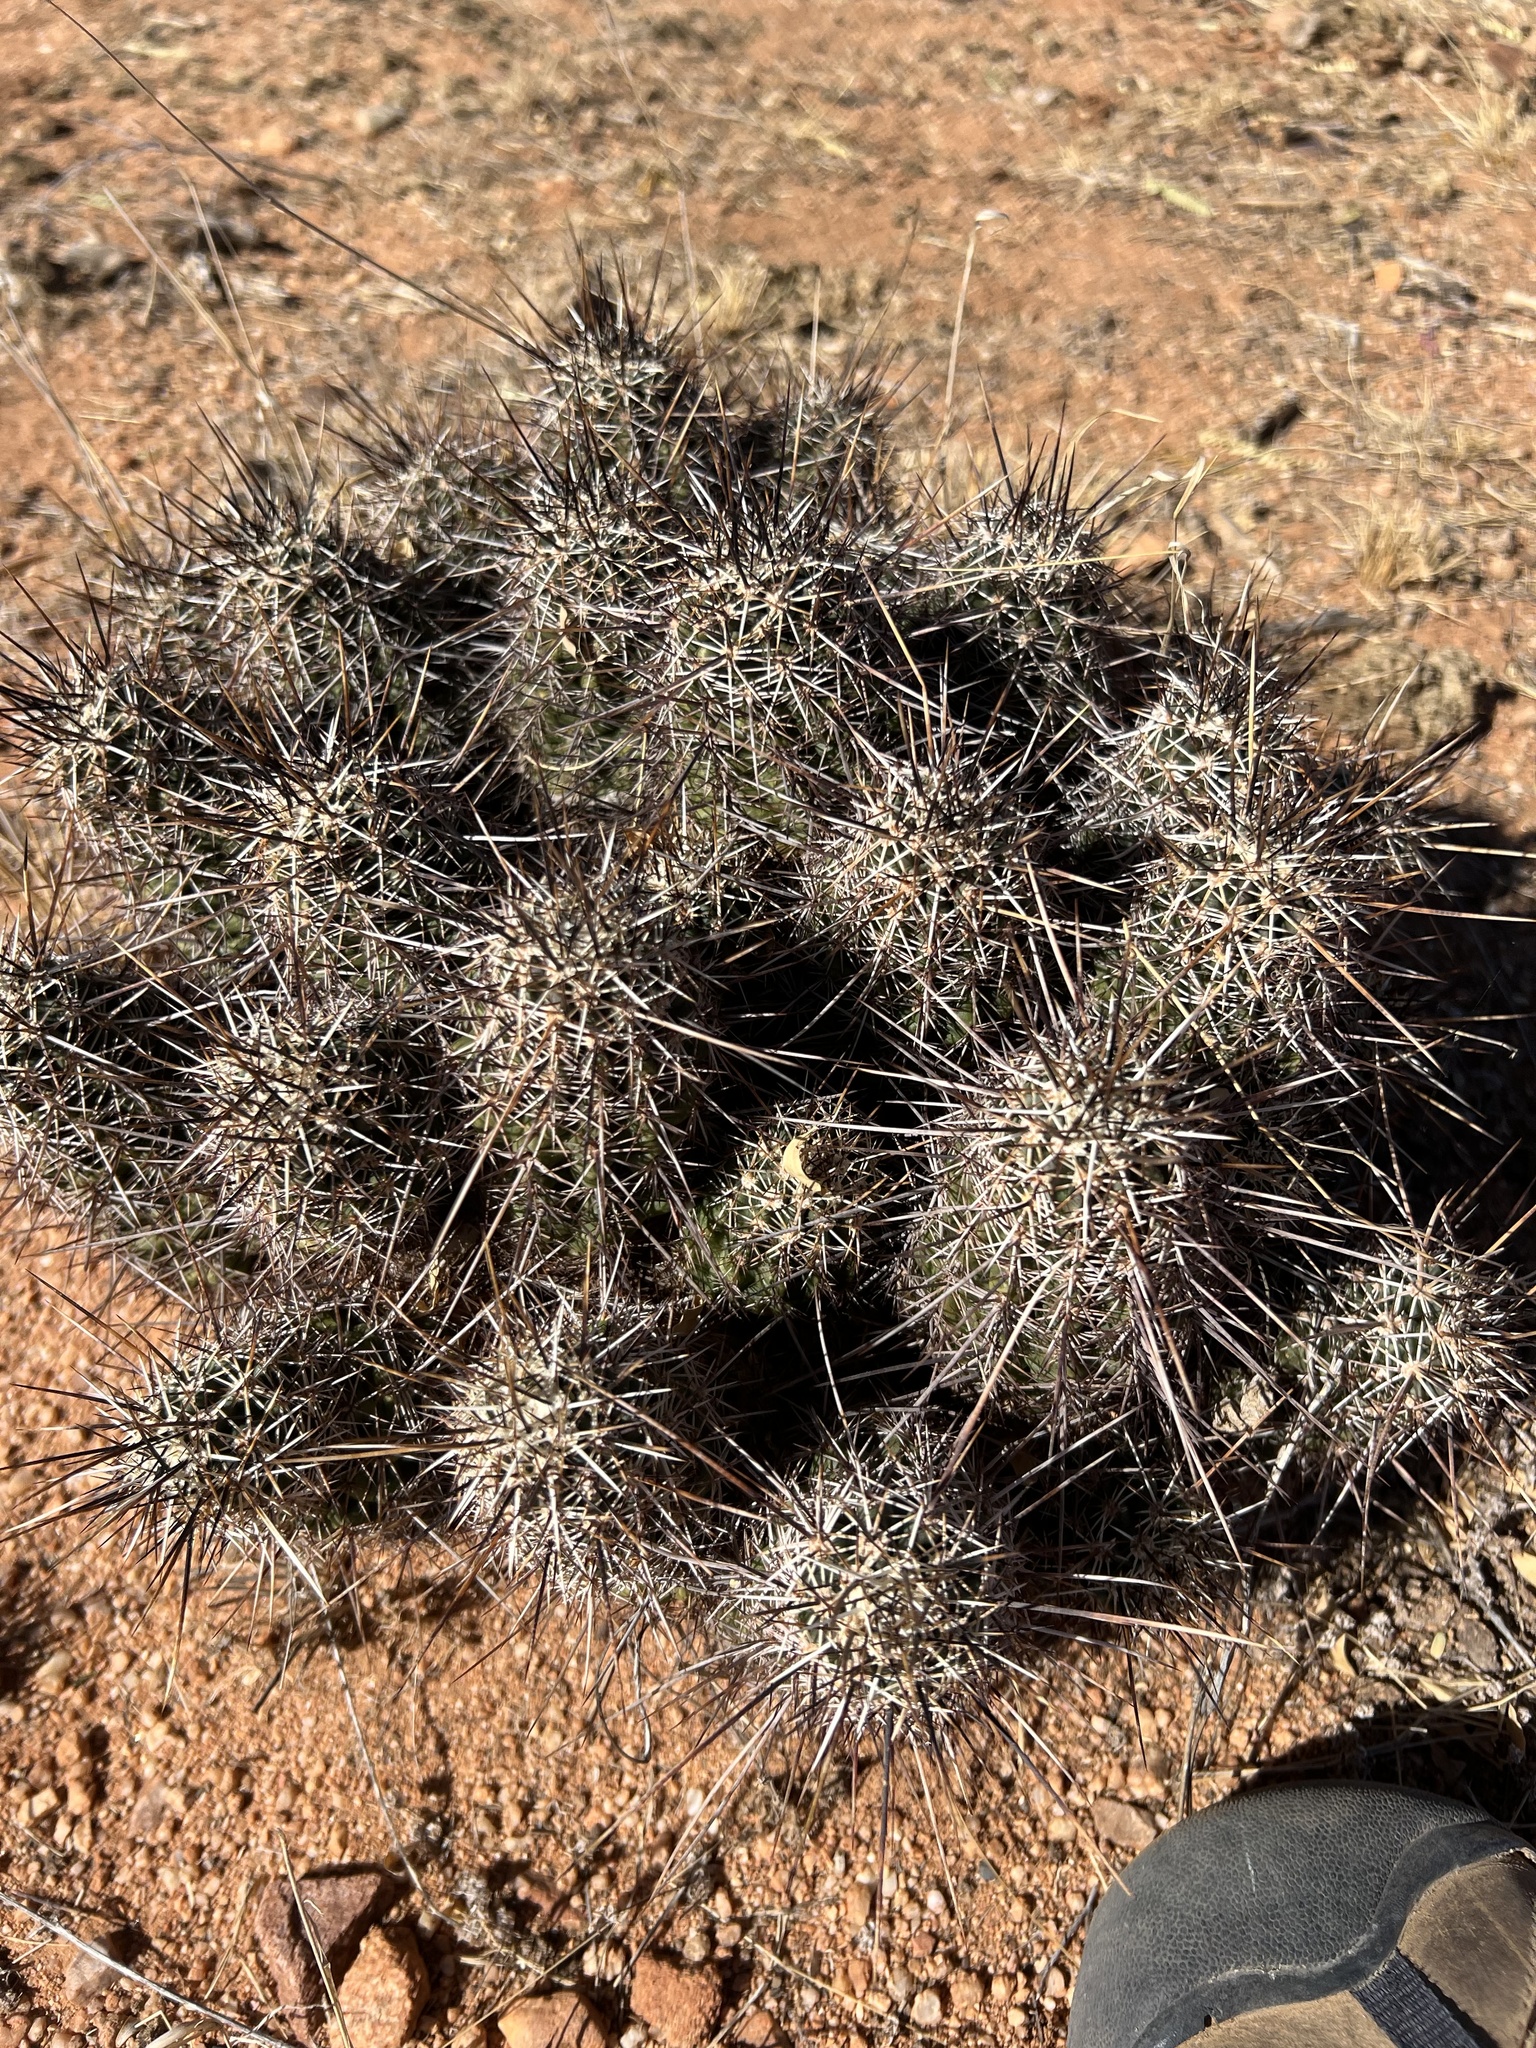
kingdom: Plantae
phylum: Tracheophyta
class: Magnoliopsida
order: Caryophyllales
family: Cactaceae
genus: Echinocereus
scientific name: Echinocereus fasciculatus
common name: Bundle hedgehog
